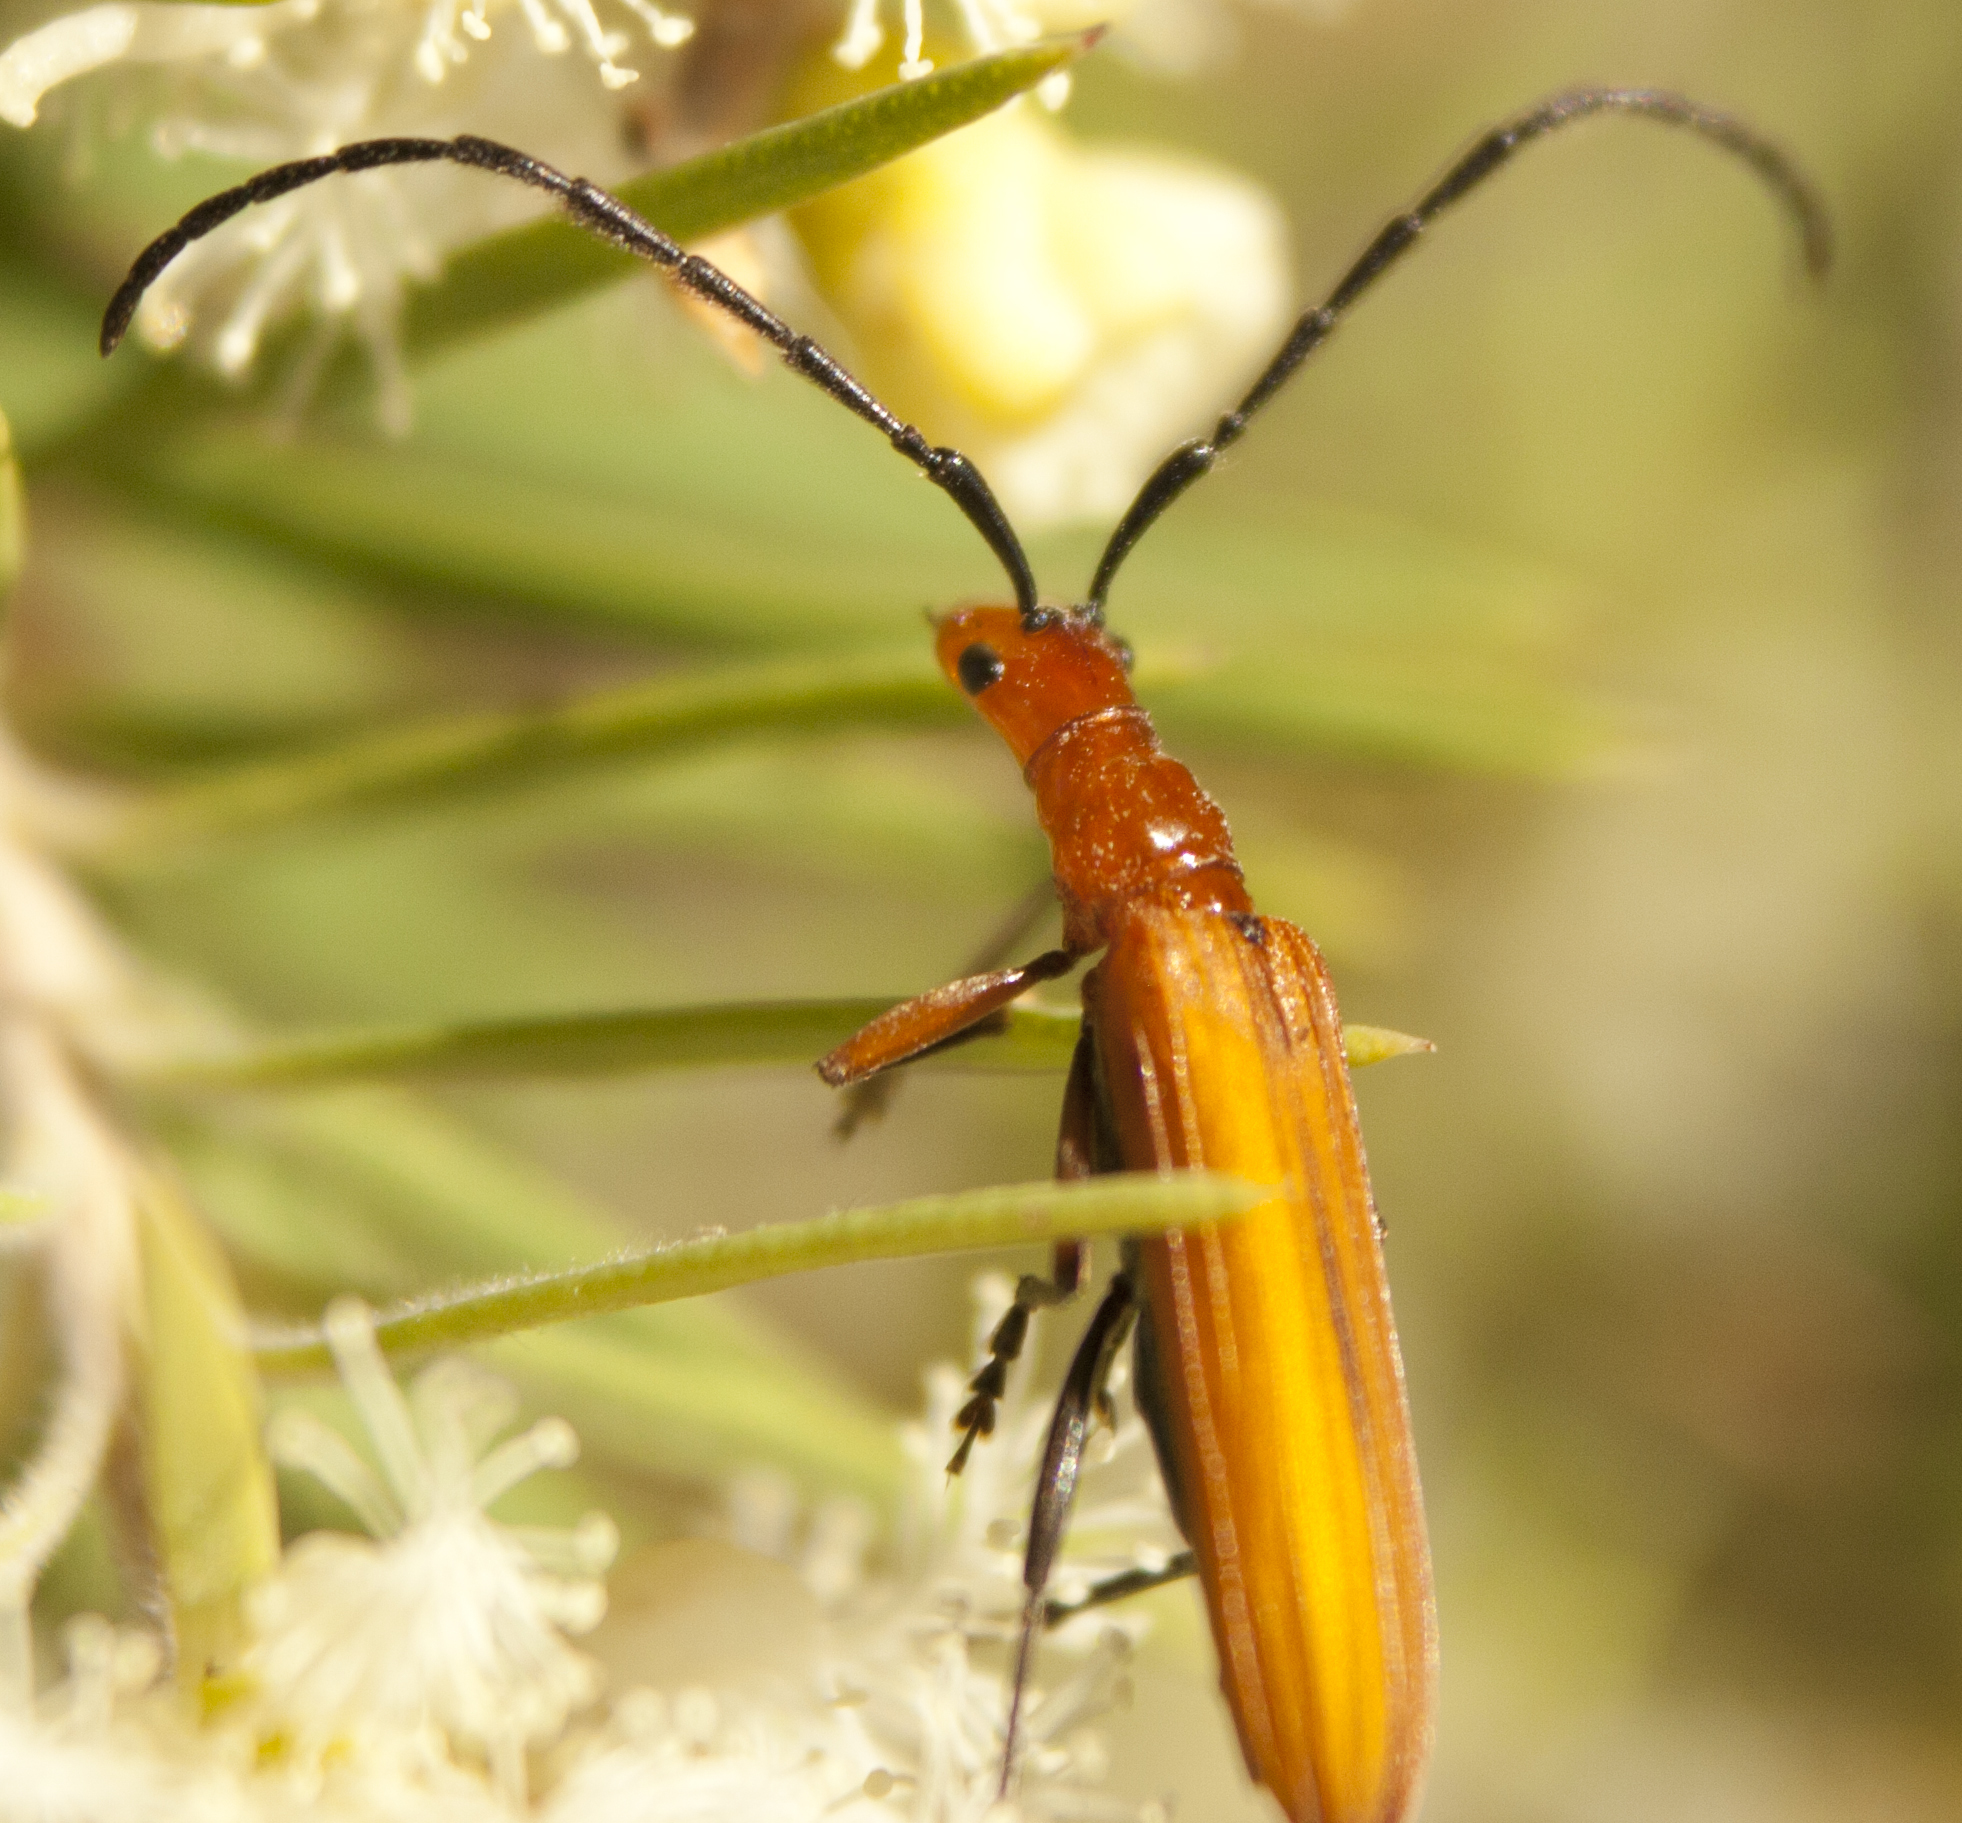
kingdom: Animalia
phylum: Arthropoda
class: Insecta
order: Coleoptera
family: Cerambycidae
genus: Stenoderus
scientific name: Stenoderus concolor
